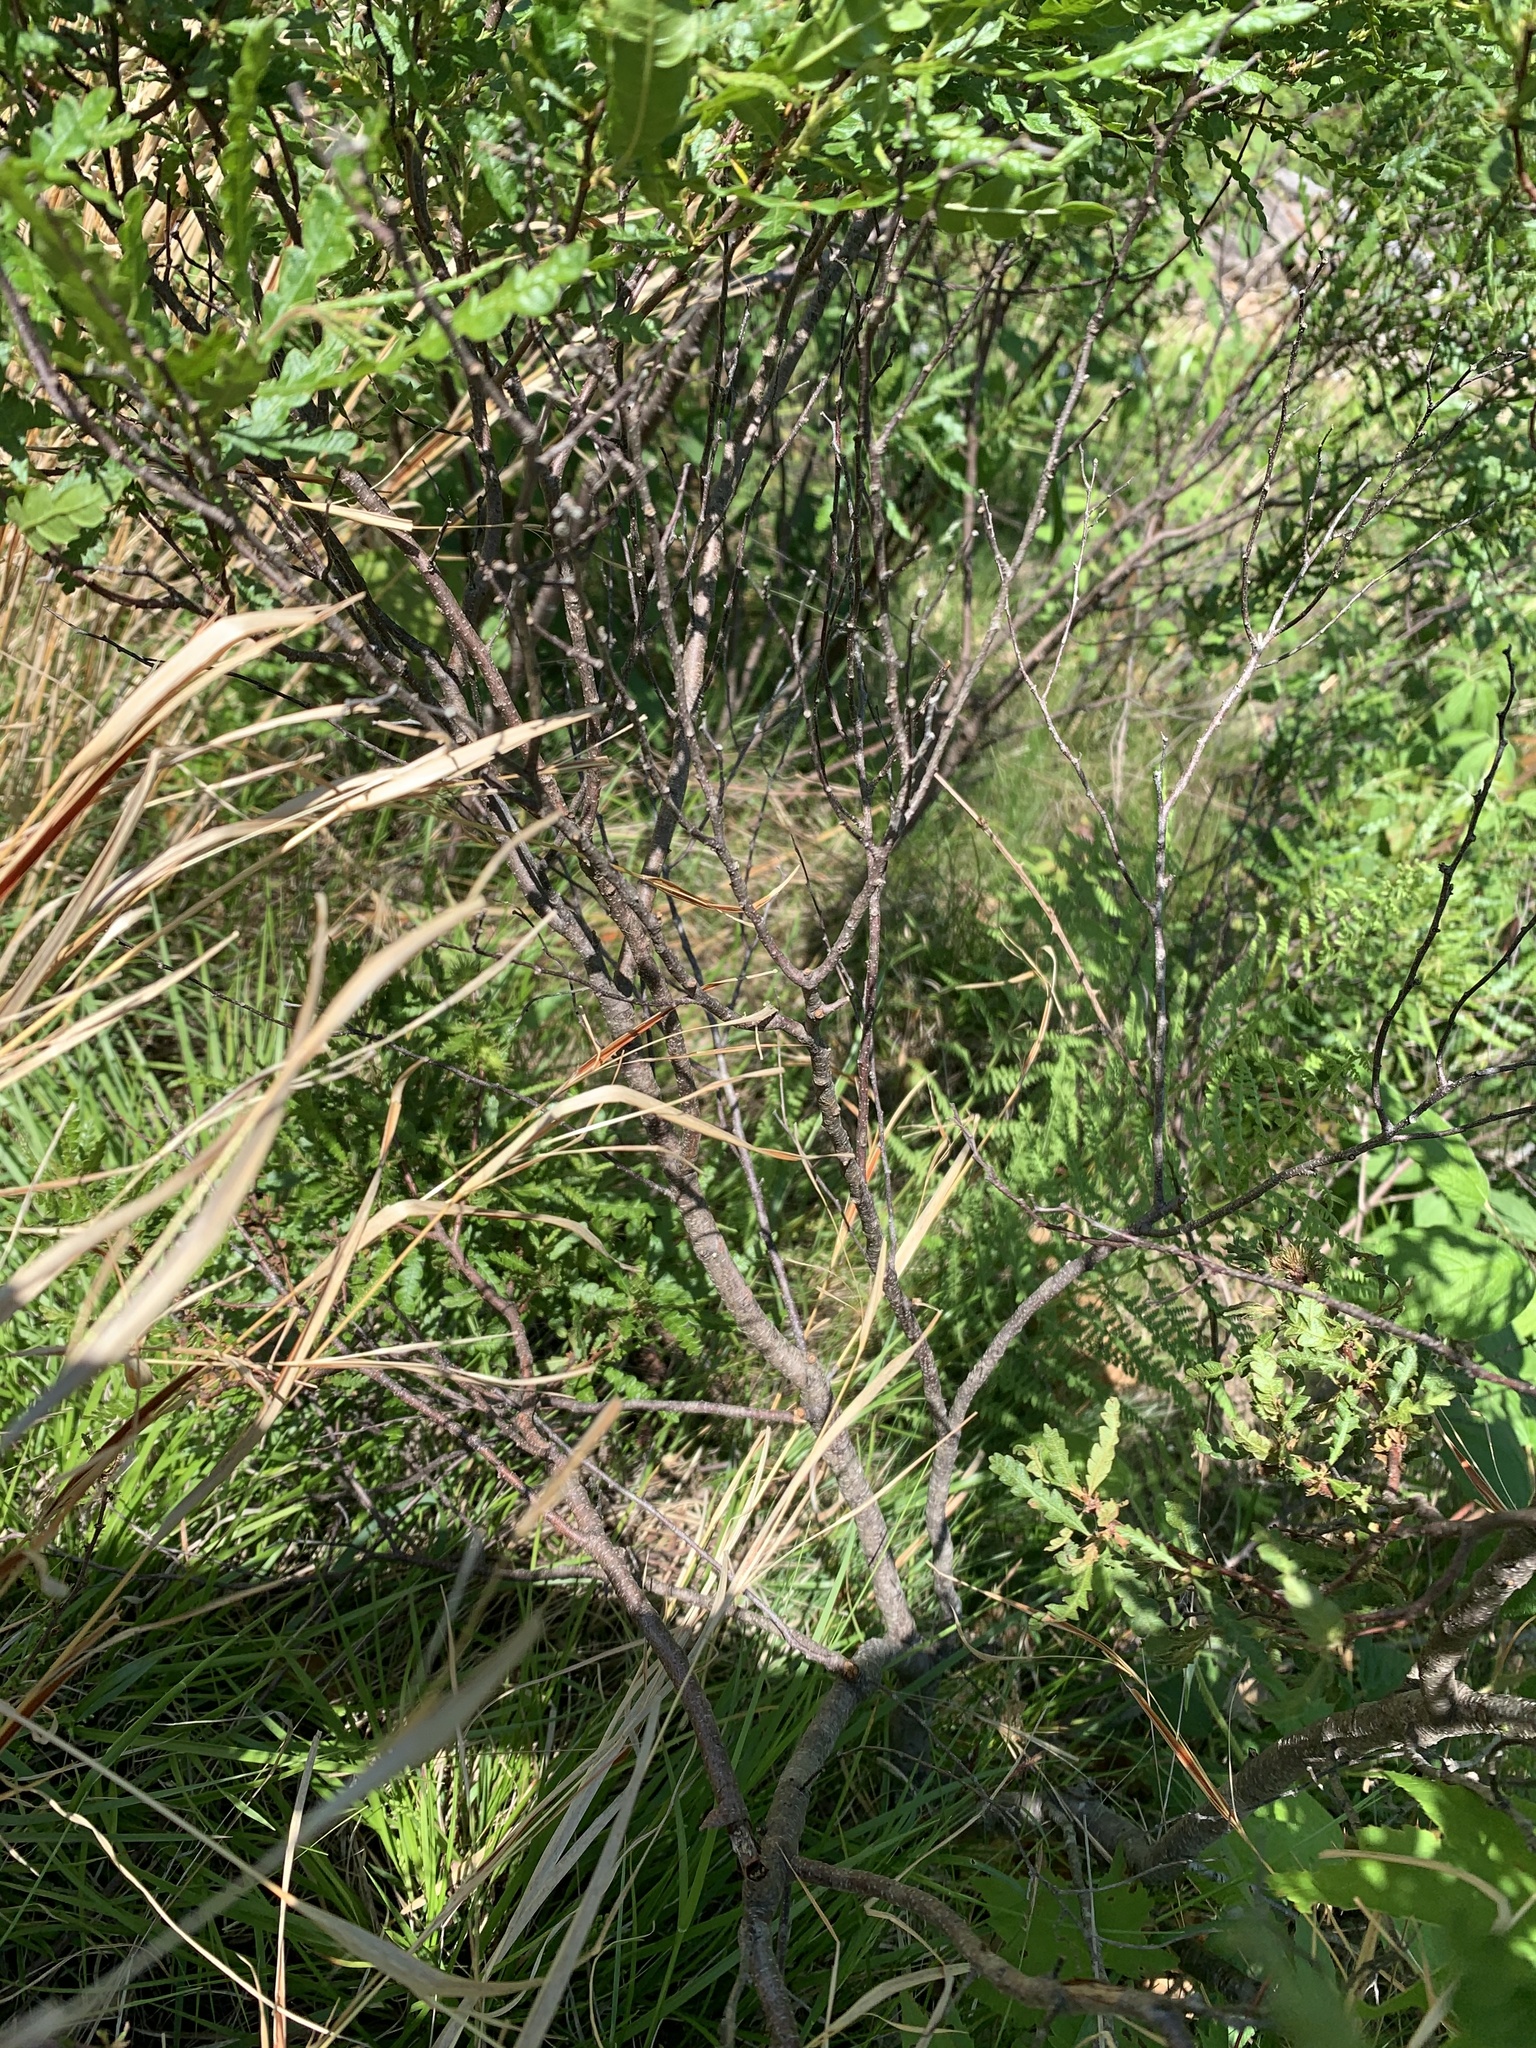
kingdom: Plantae
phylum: Tracheophyta
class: Magnoliopsida
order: Fagales
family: Myricaceae
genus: Comptonia
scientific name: Comptonia peregrina
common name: Sweet-fern
